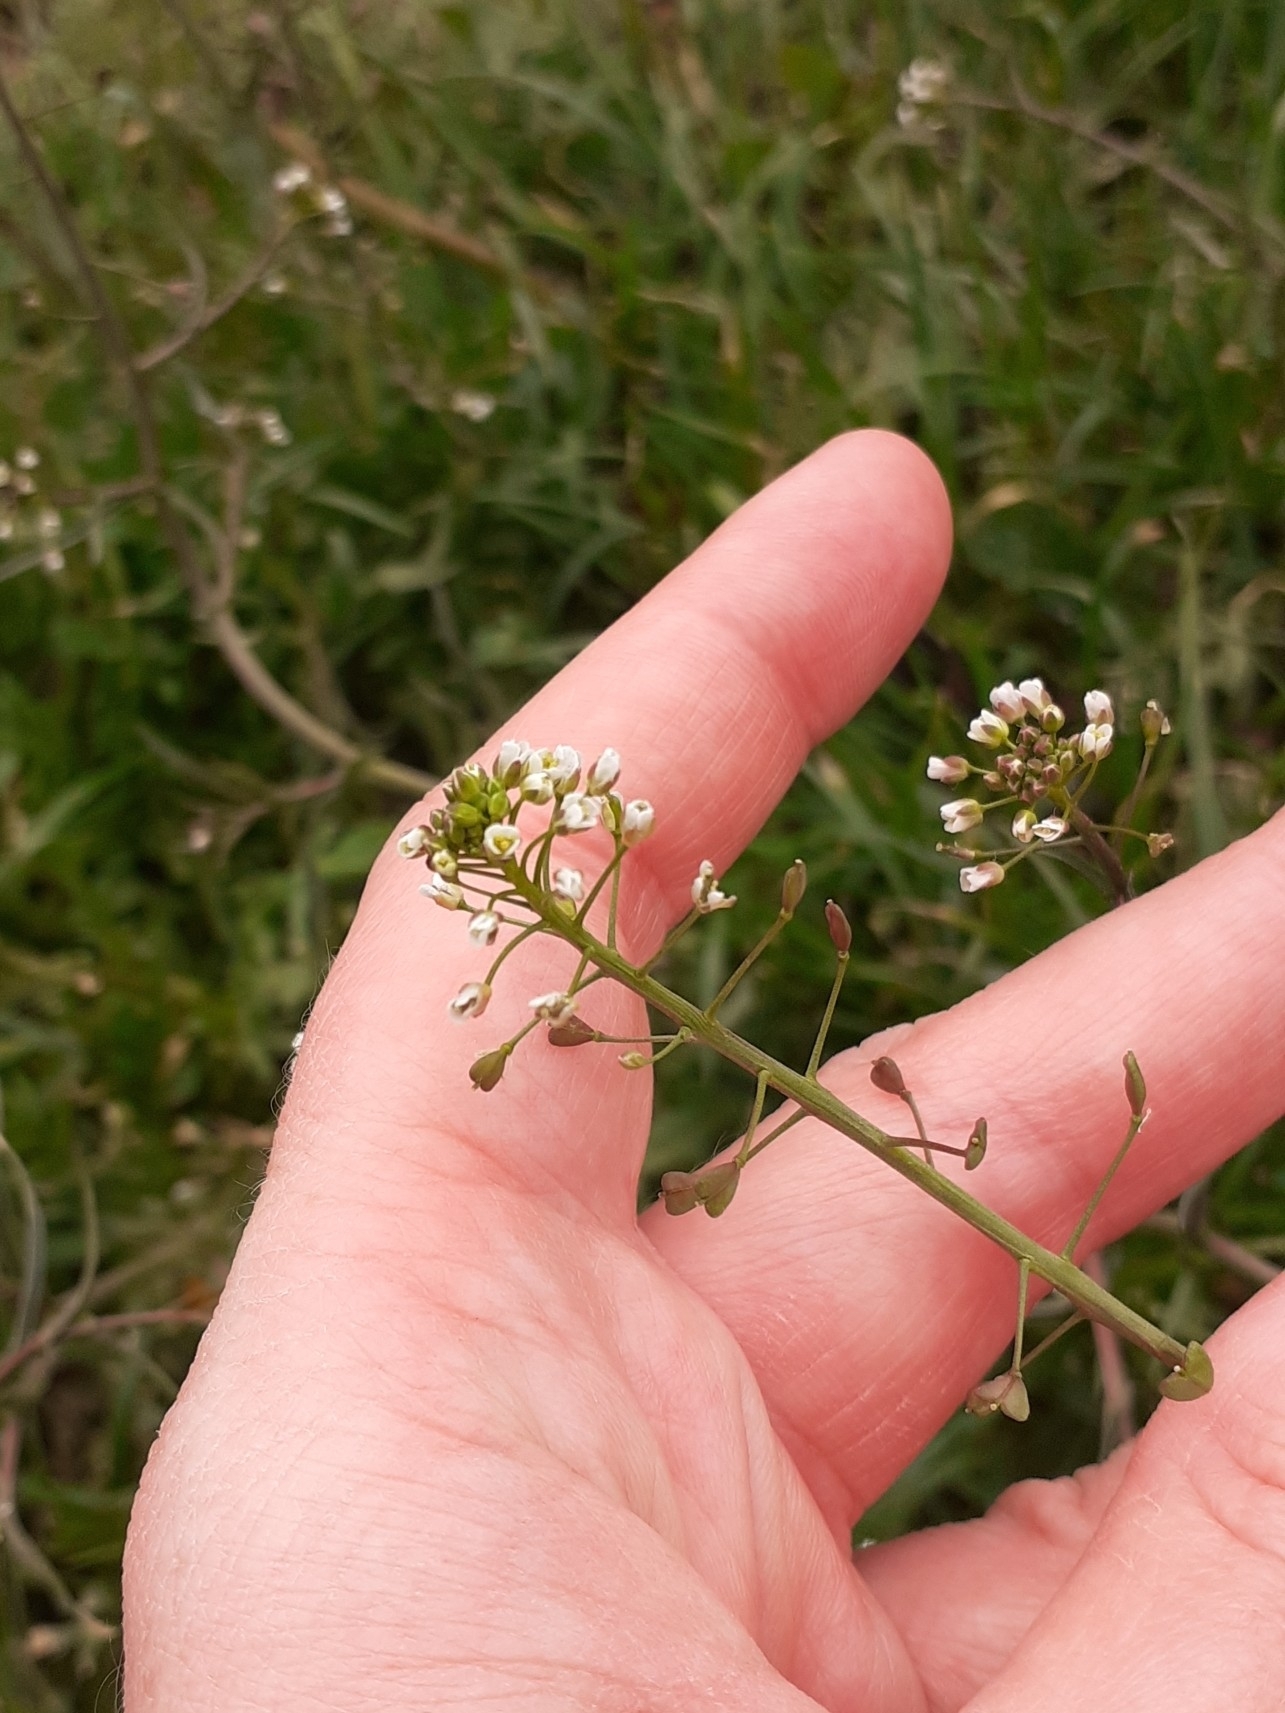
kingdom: Plantae
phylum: Tracheophyta
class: Magnoliopsida
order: Brassicales
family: Brassicaceae
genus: Capsella
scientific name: Capsella bursa-pastoris
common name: Shepherd's purse
